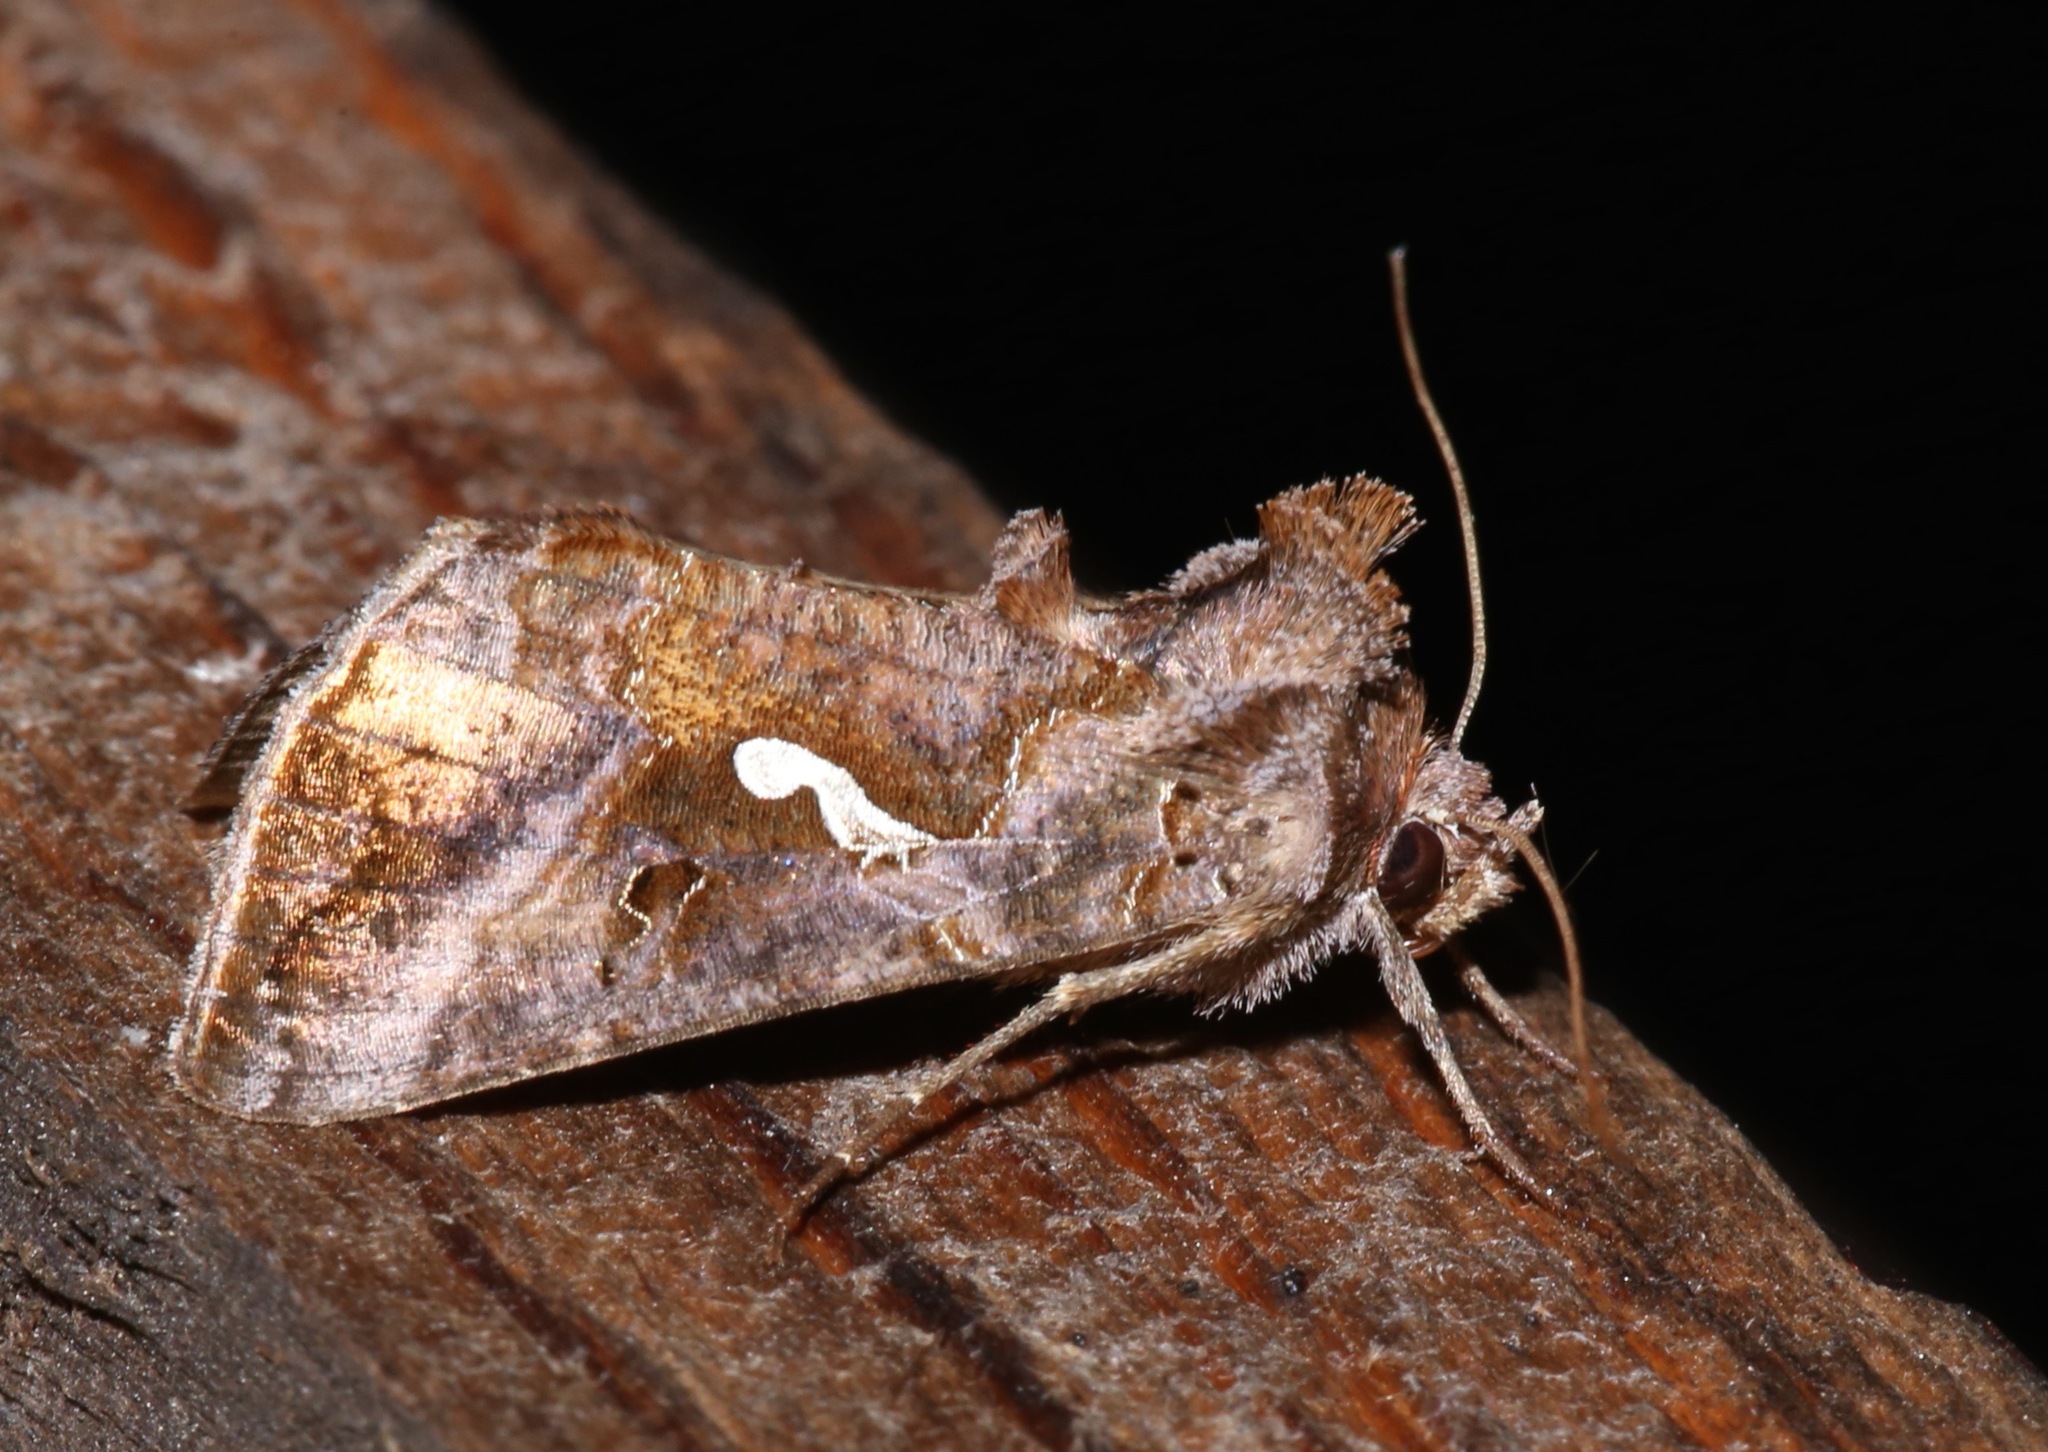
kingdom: Animalia
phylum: Arthropoda
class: Insecta
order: Lepidoptera
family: Noctuidae
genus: Autographa
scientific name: Autographa precationis
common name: Common looper moth
